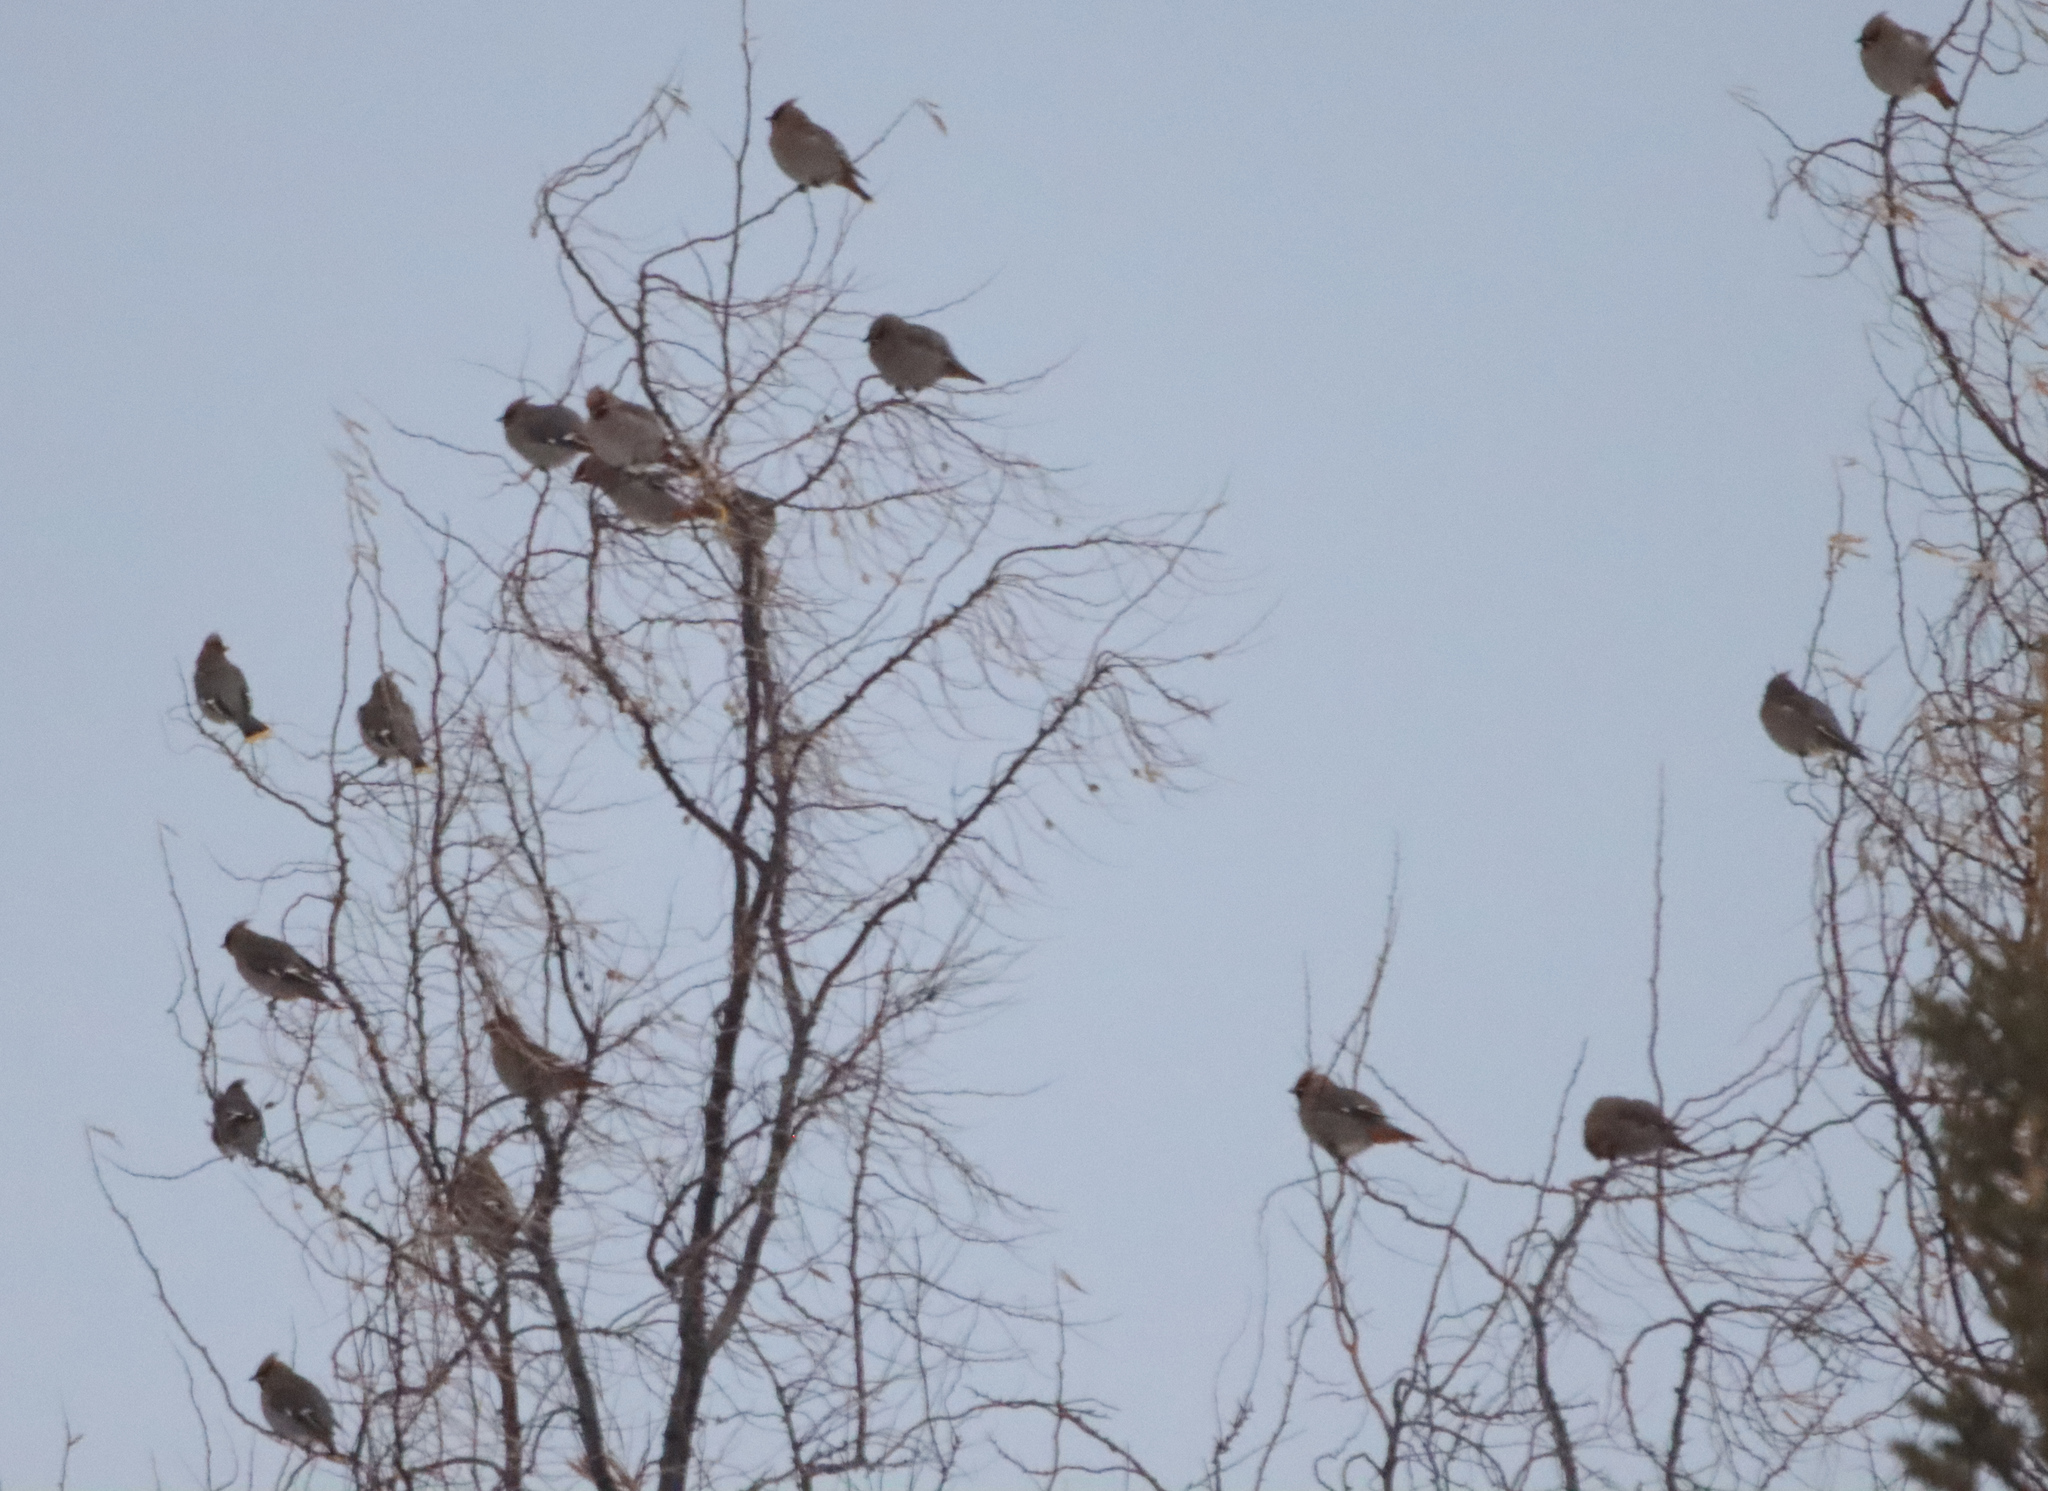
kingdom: Animalia
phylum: Chordata
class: Aves
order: Passeriformes
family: Bombycillidae
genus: Bombycilla
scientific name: Bombycilla garrulus
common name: Bohemian waxwing
